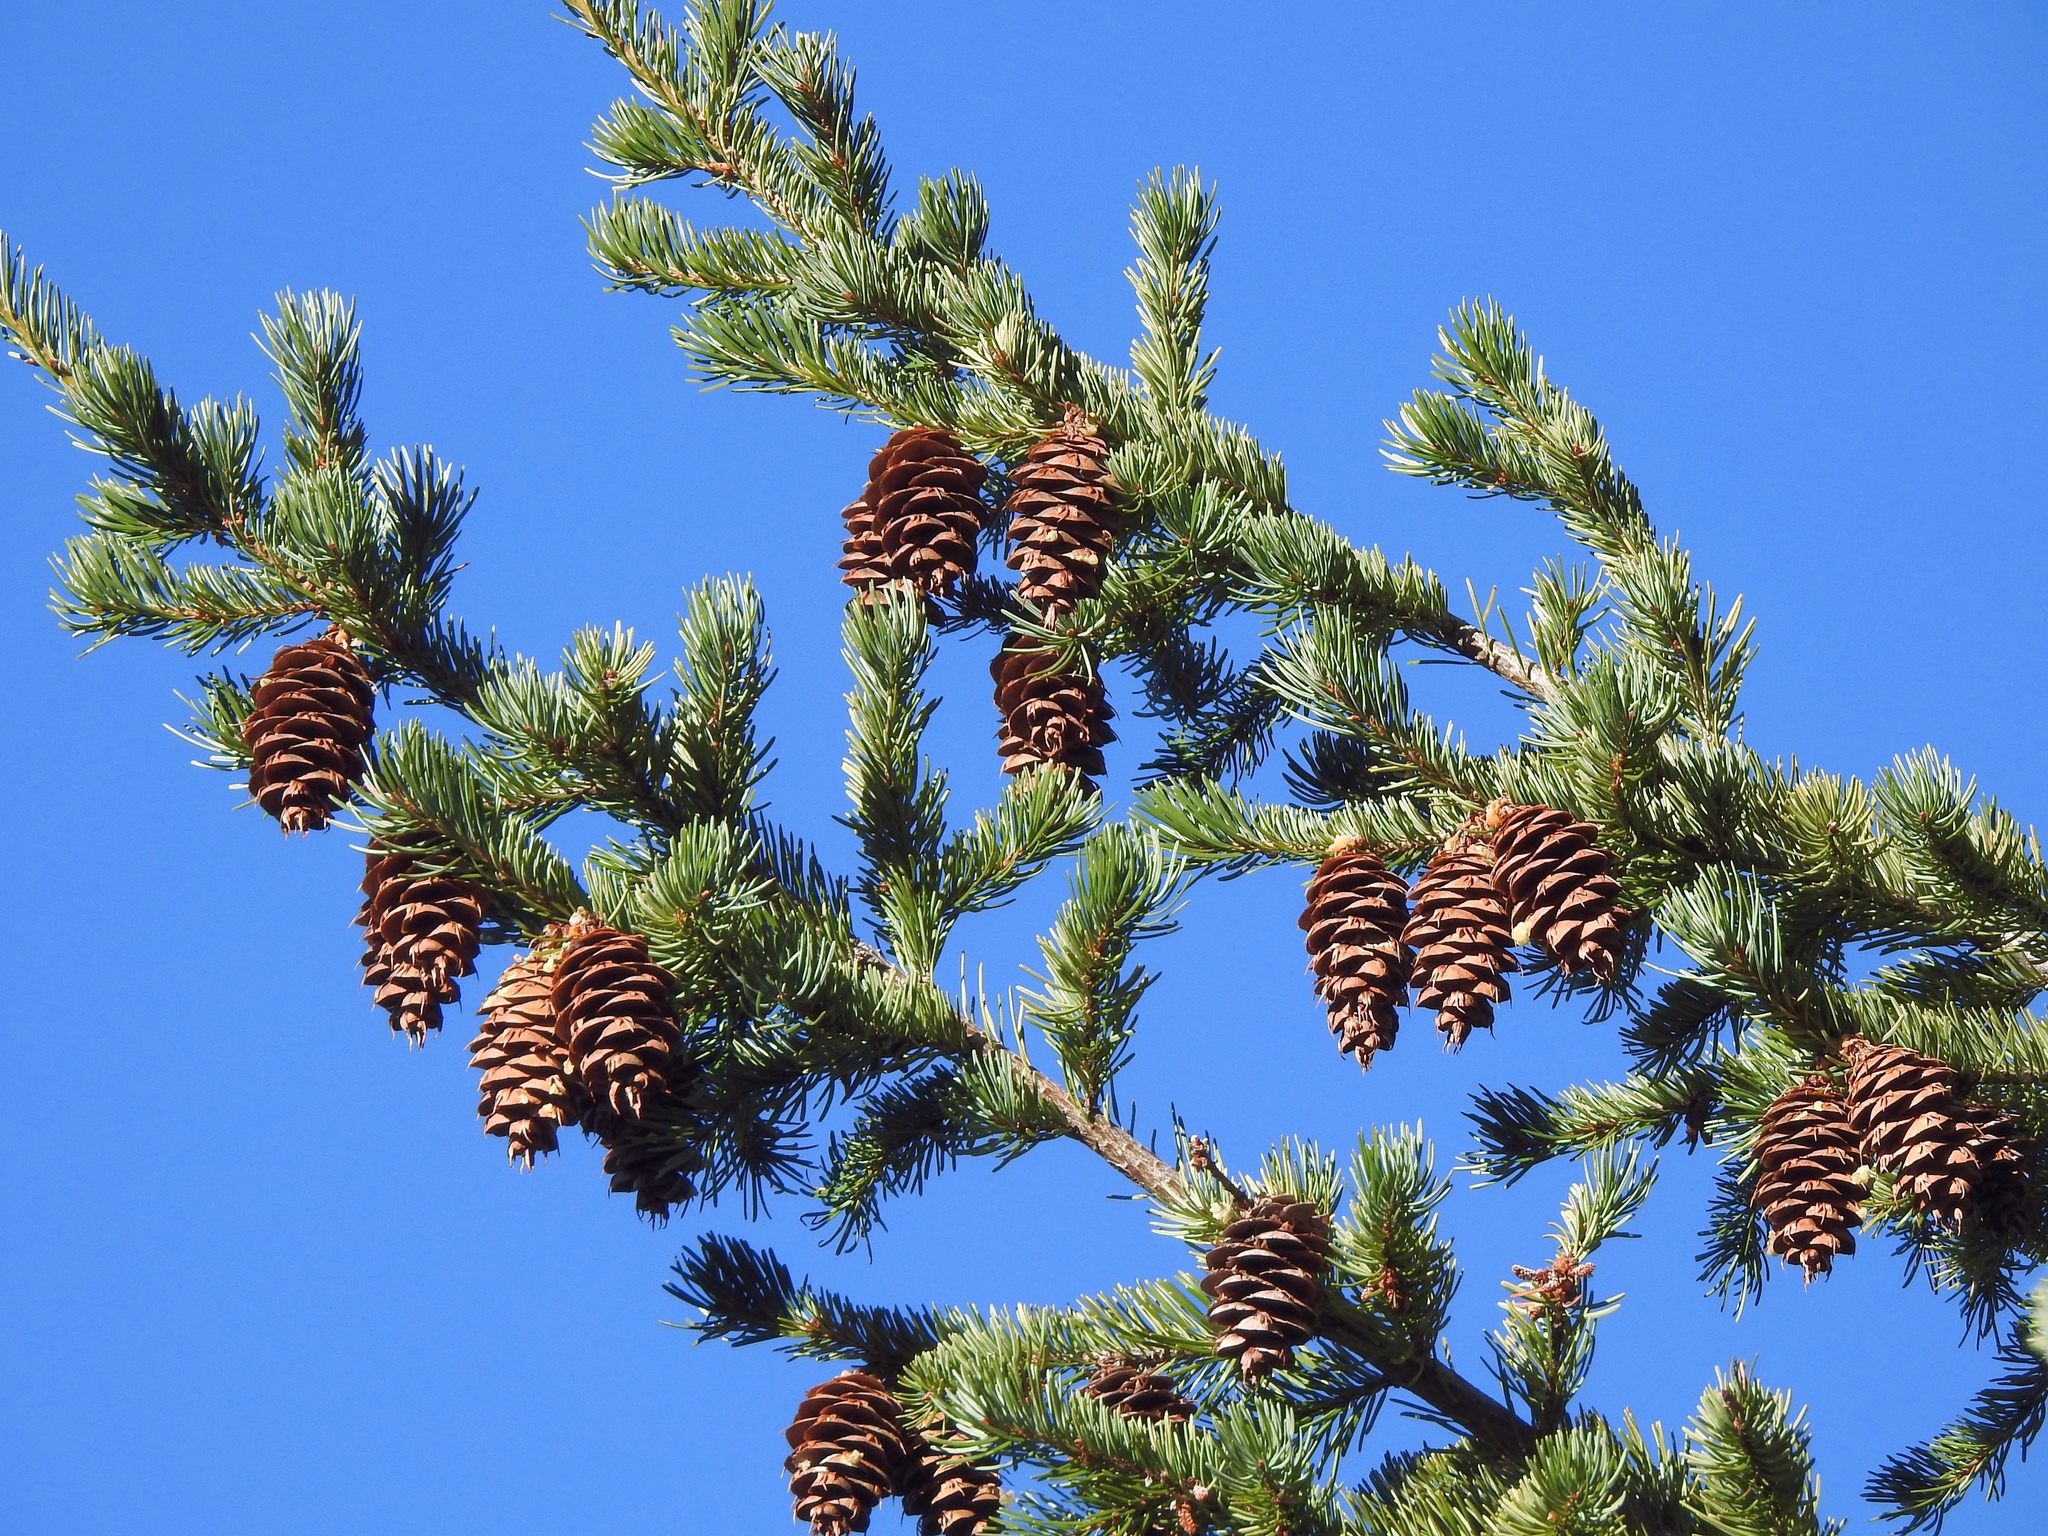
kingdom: Plantae
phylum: Tracheophyta
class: Pinopsida
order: Pinales
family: Pinaceae
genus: Pseudotsuga
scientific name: Pseudotsuga menziesii
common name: Douglas fir
